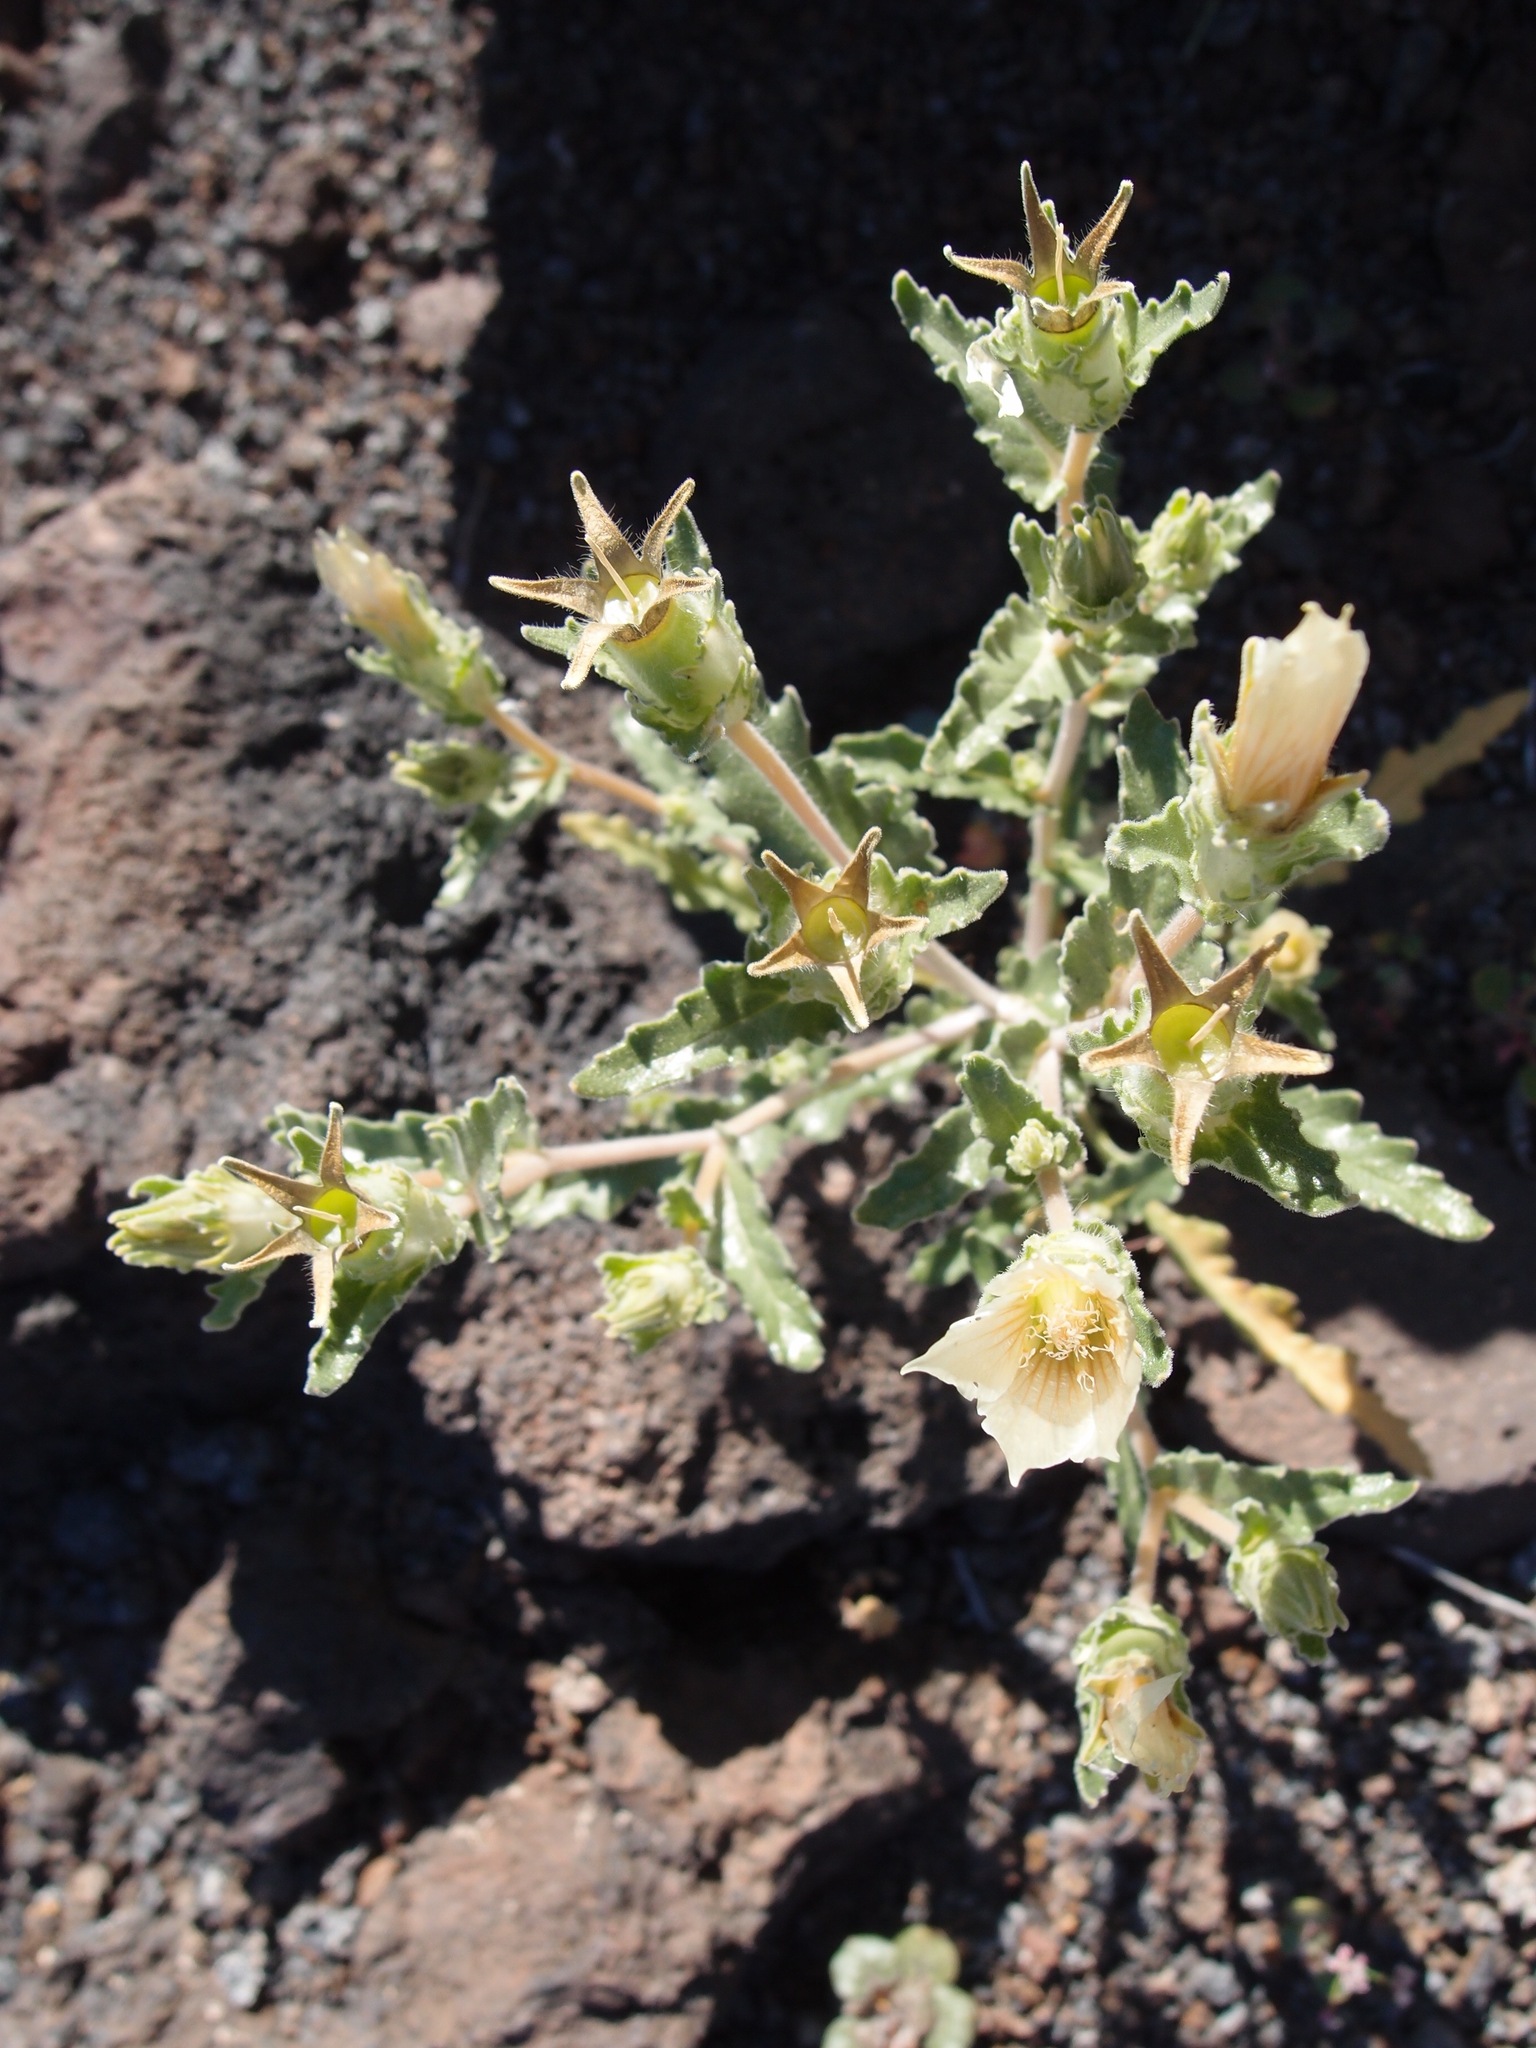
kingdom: Plantae
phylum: Tracheophyta
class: Magnoliopsida
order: Cornales
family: Loasaceae
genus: Mentzelia
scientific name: Mentzelia involucrata
